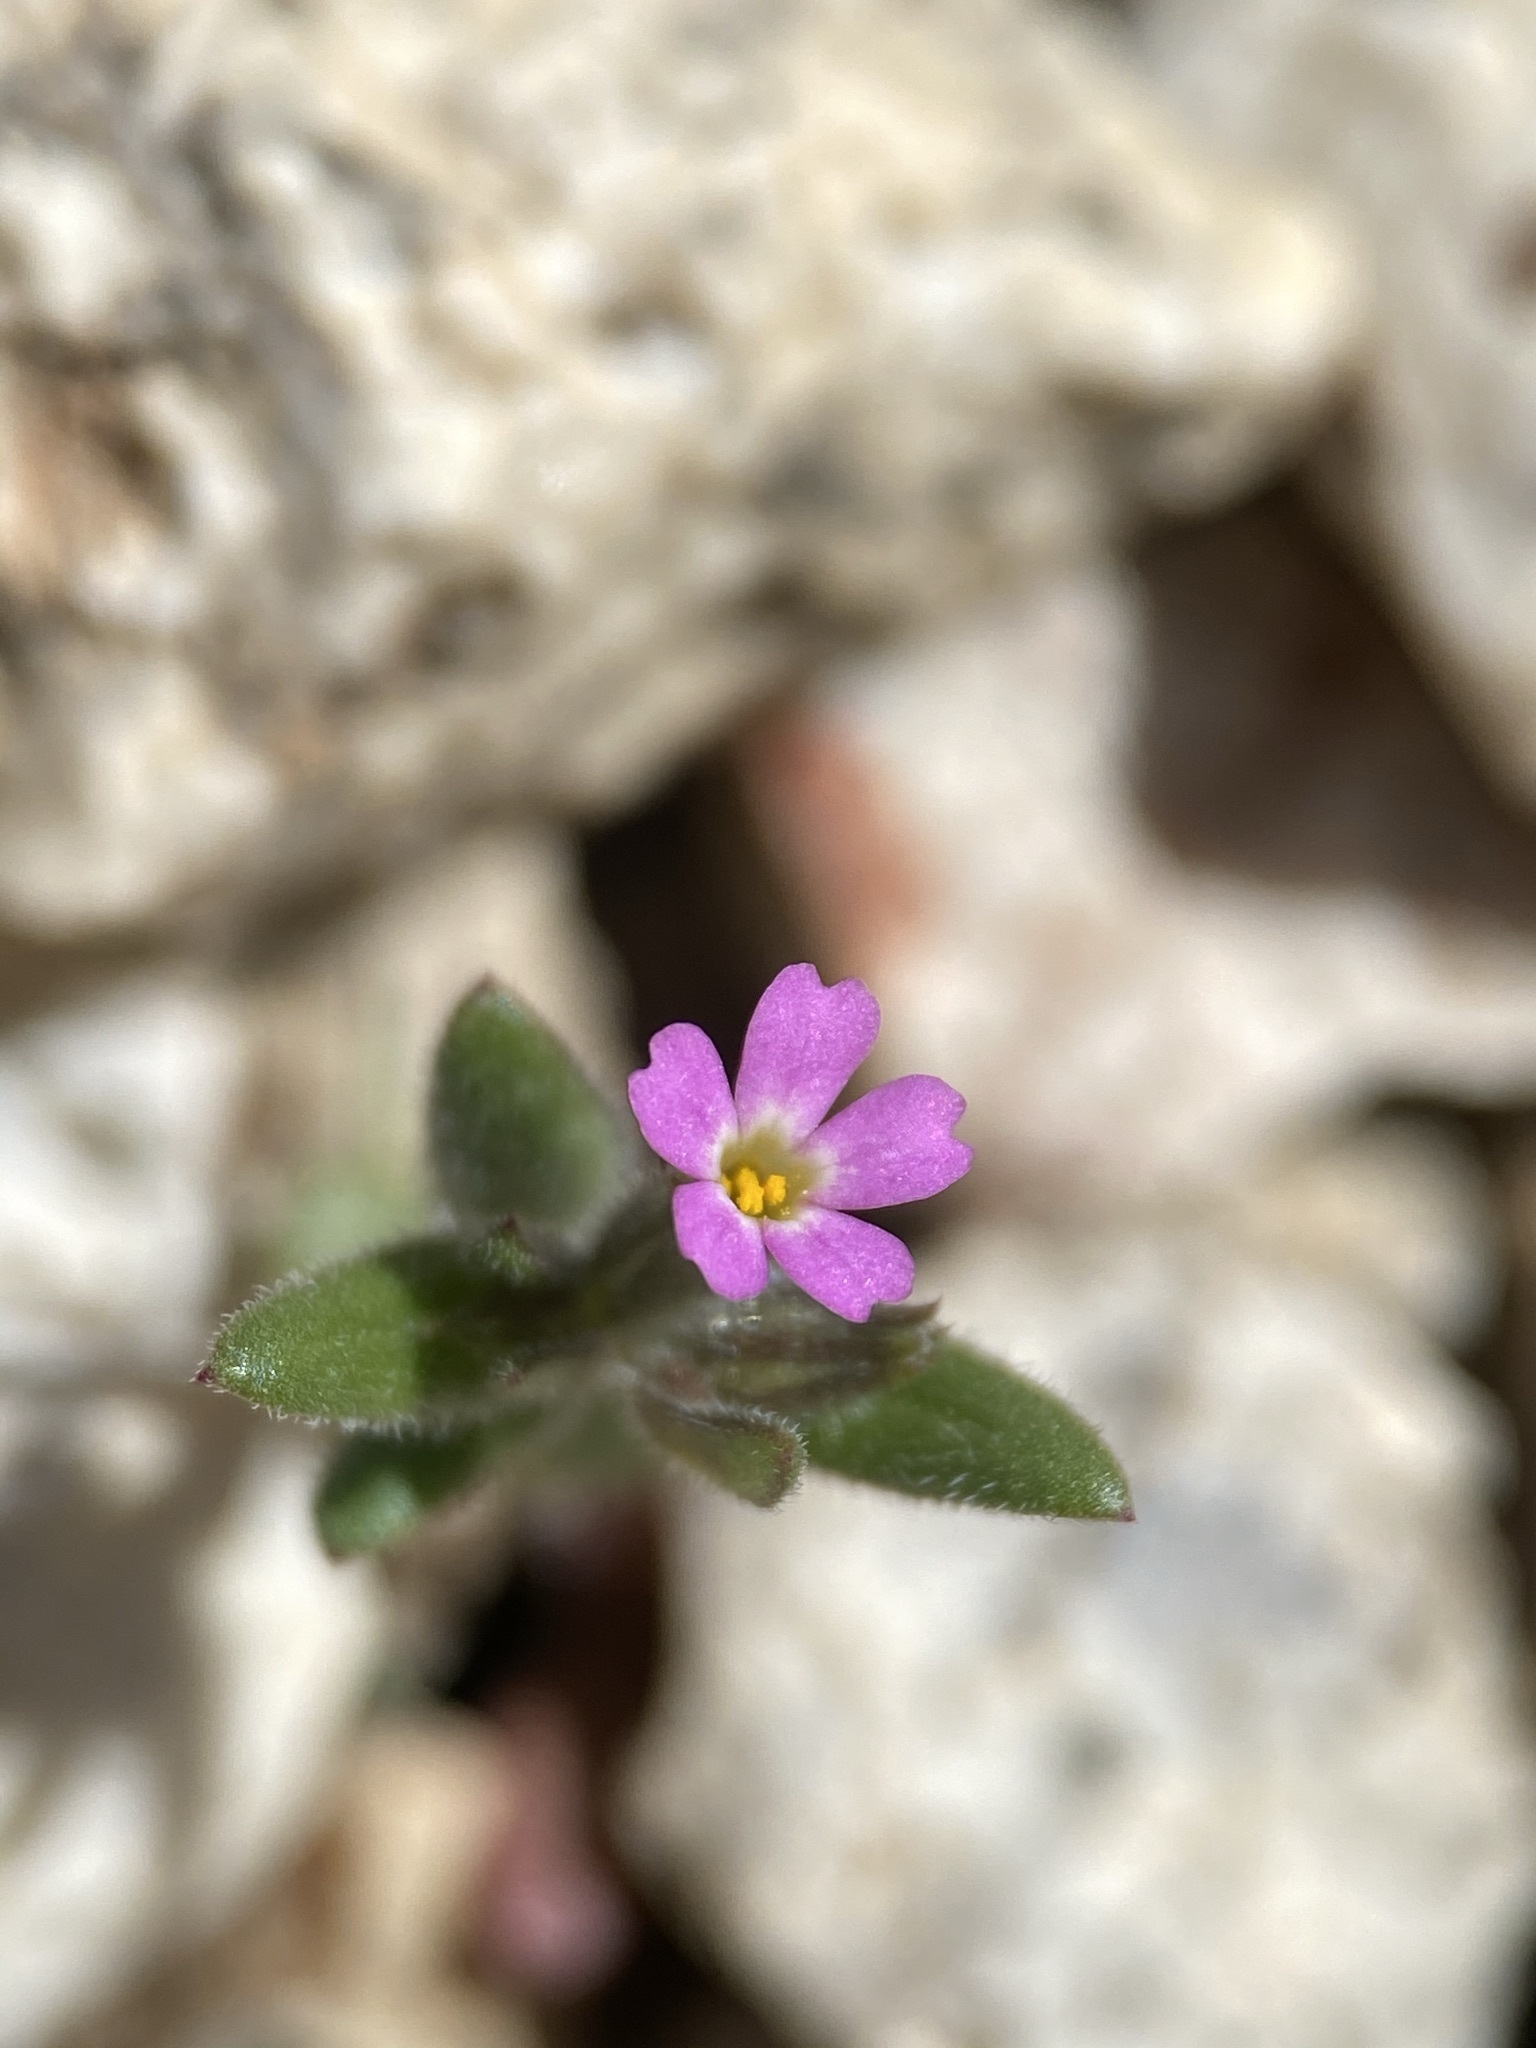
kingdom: Plantae
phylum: Tracheophyta
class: Magnoliopsida
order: Ericales
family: Polemoniaceae
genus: Phlox
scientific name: Phlox gracilis
